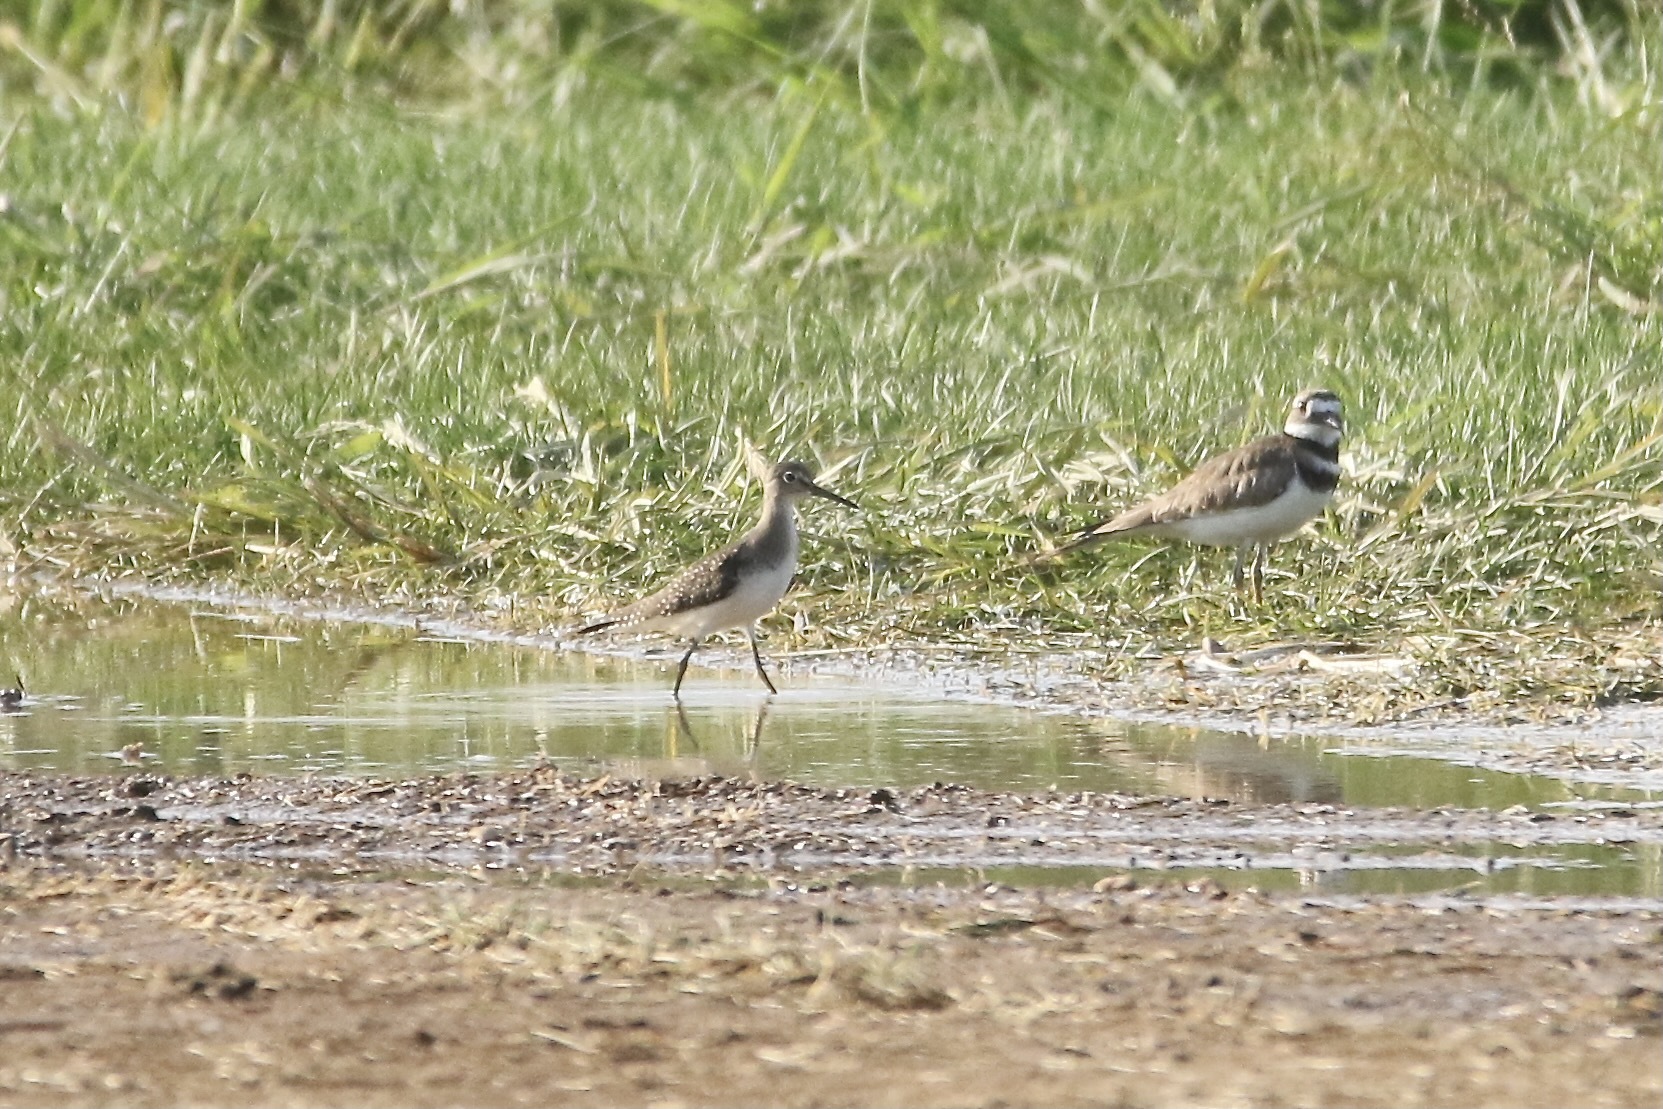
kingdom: Animalia
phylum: Chordata
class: Aves
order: Charadriiformes
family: Scolopacidae
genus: Tringa
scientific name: Tringa solitaria
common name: Solitary sandpiper
